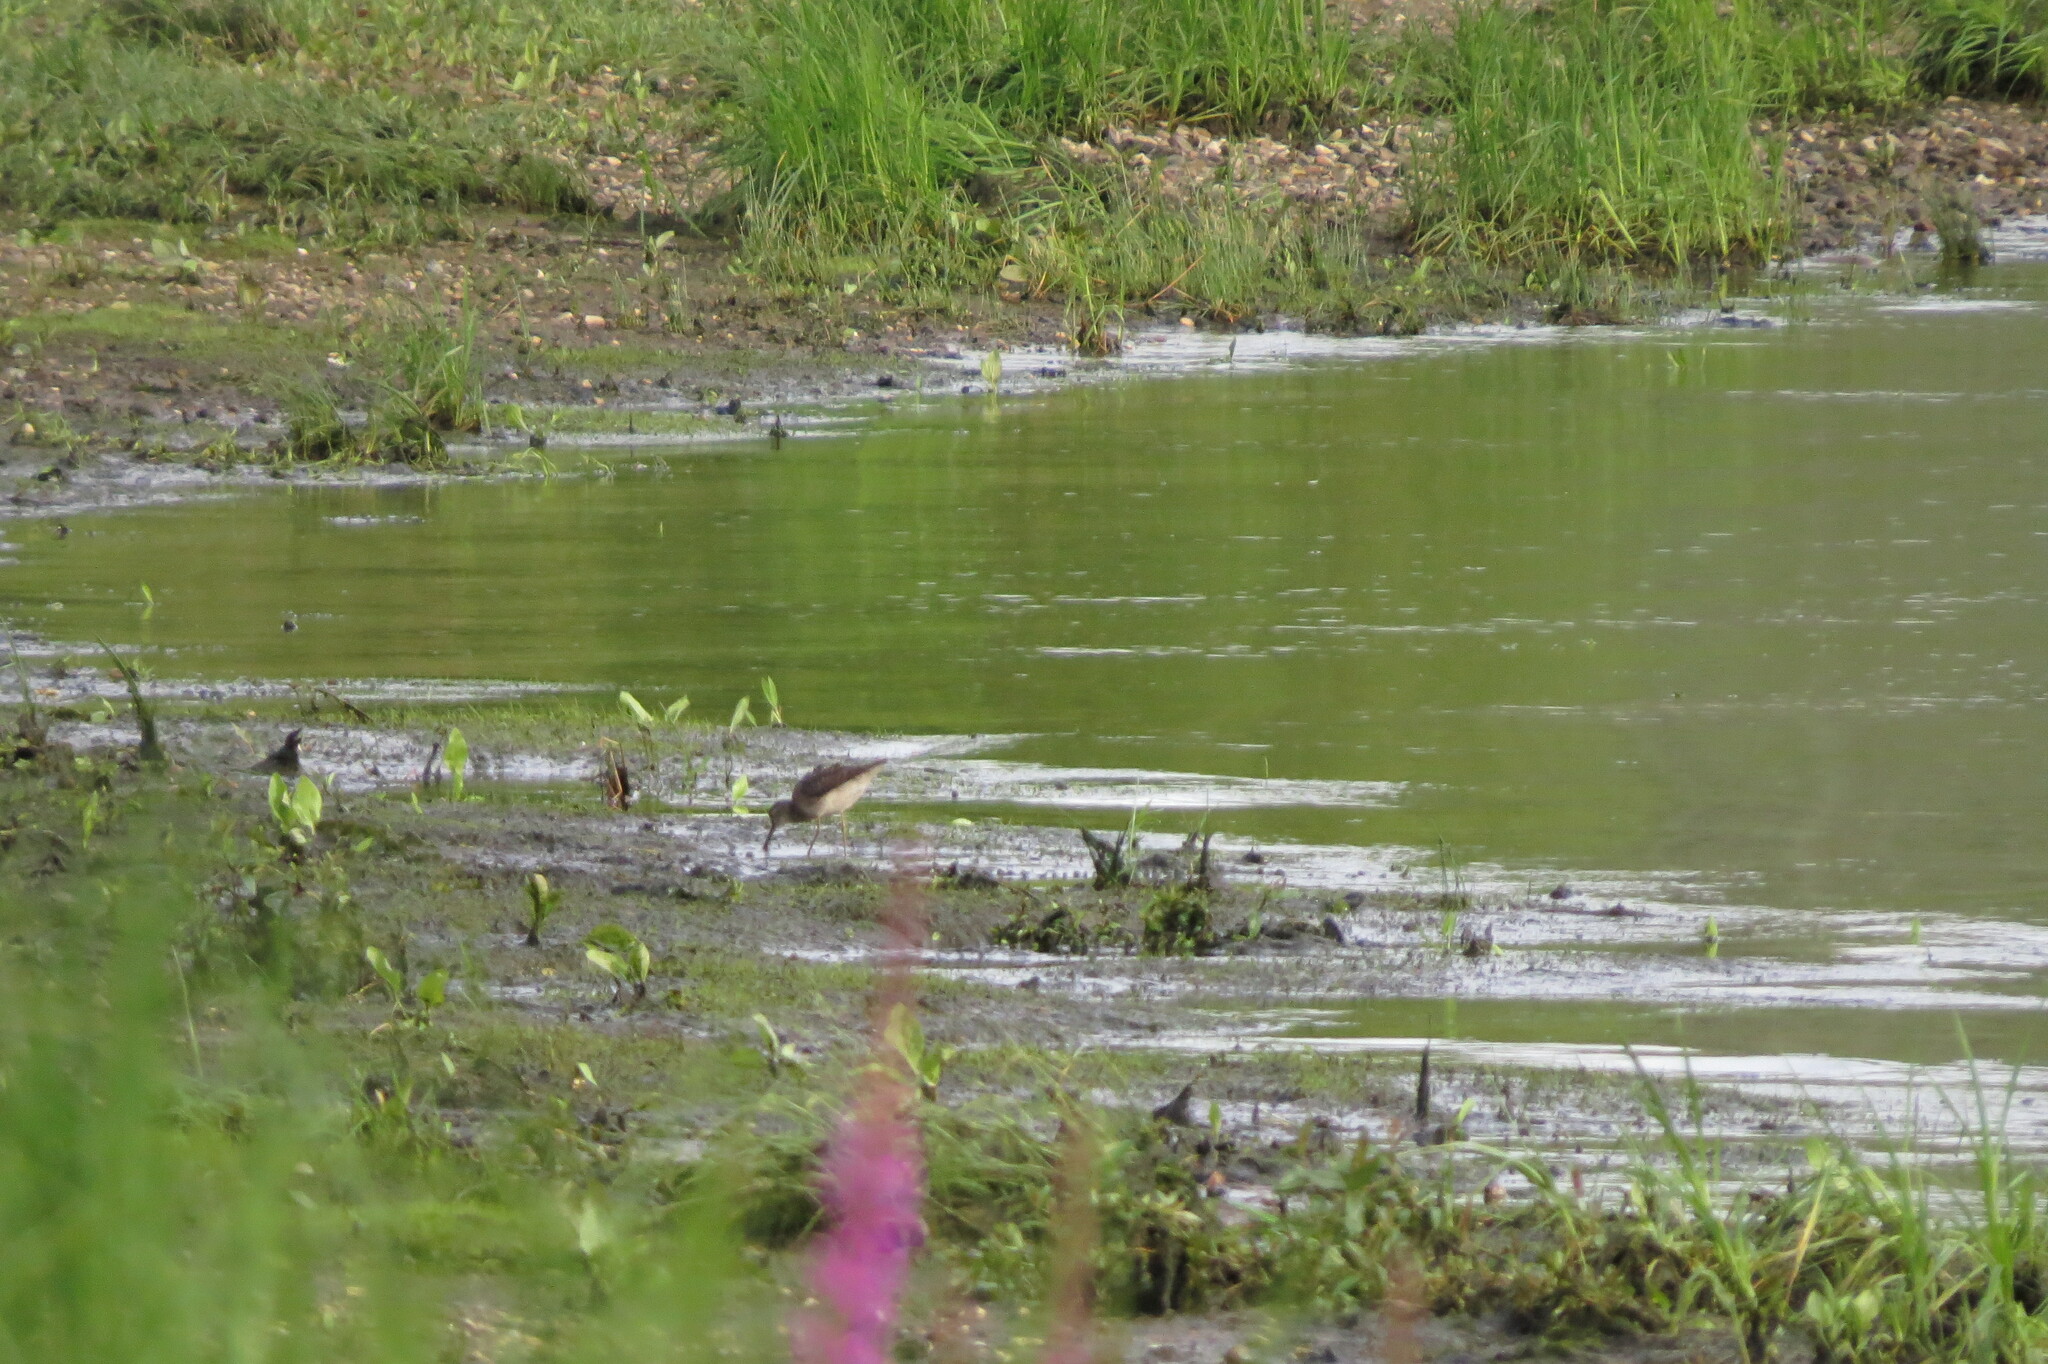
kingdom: Animalia
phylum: Chordata
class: Aves
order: Charadriiformes
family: Scolopacidae
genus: Tringa
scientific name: Tringa glareola
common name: Wood sandpiper
